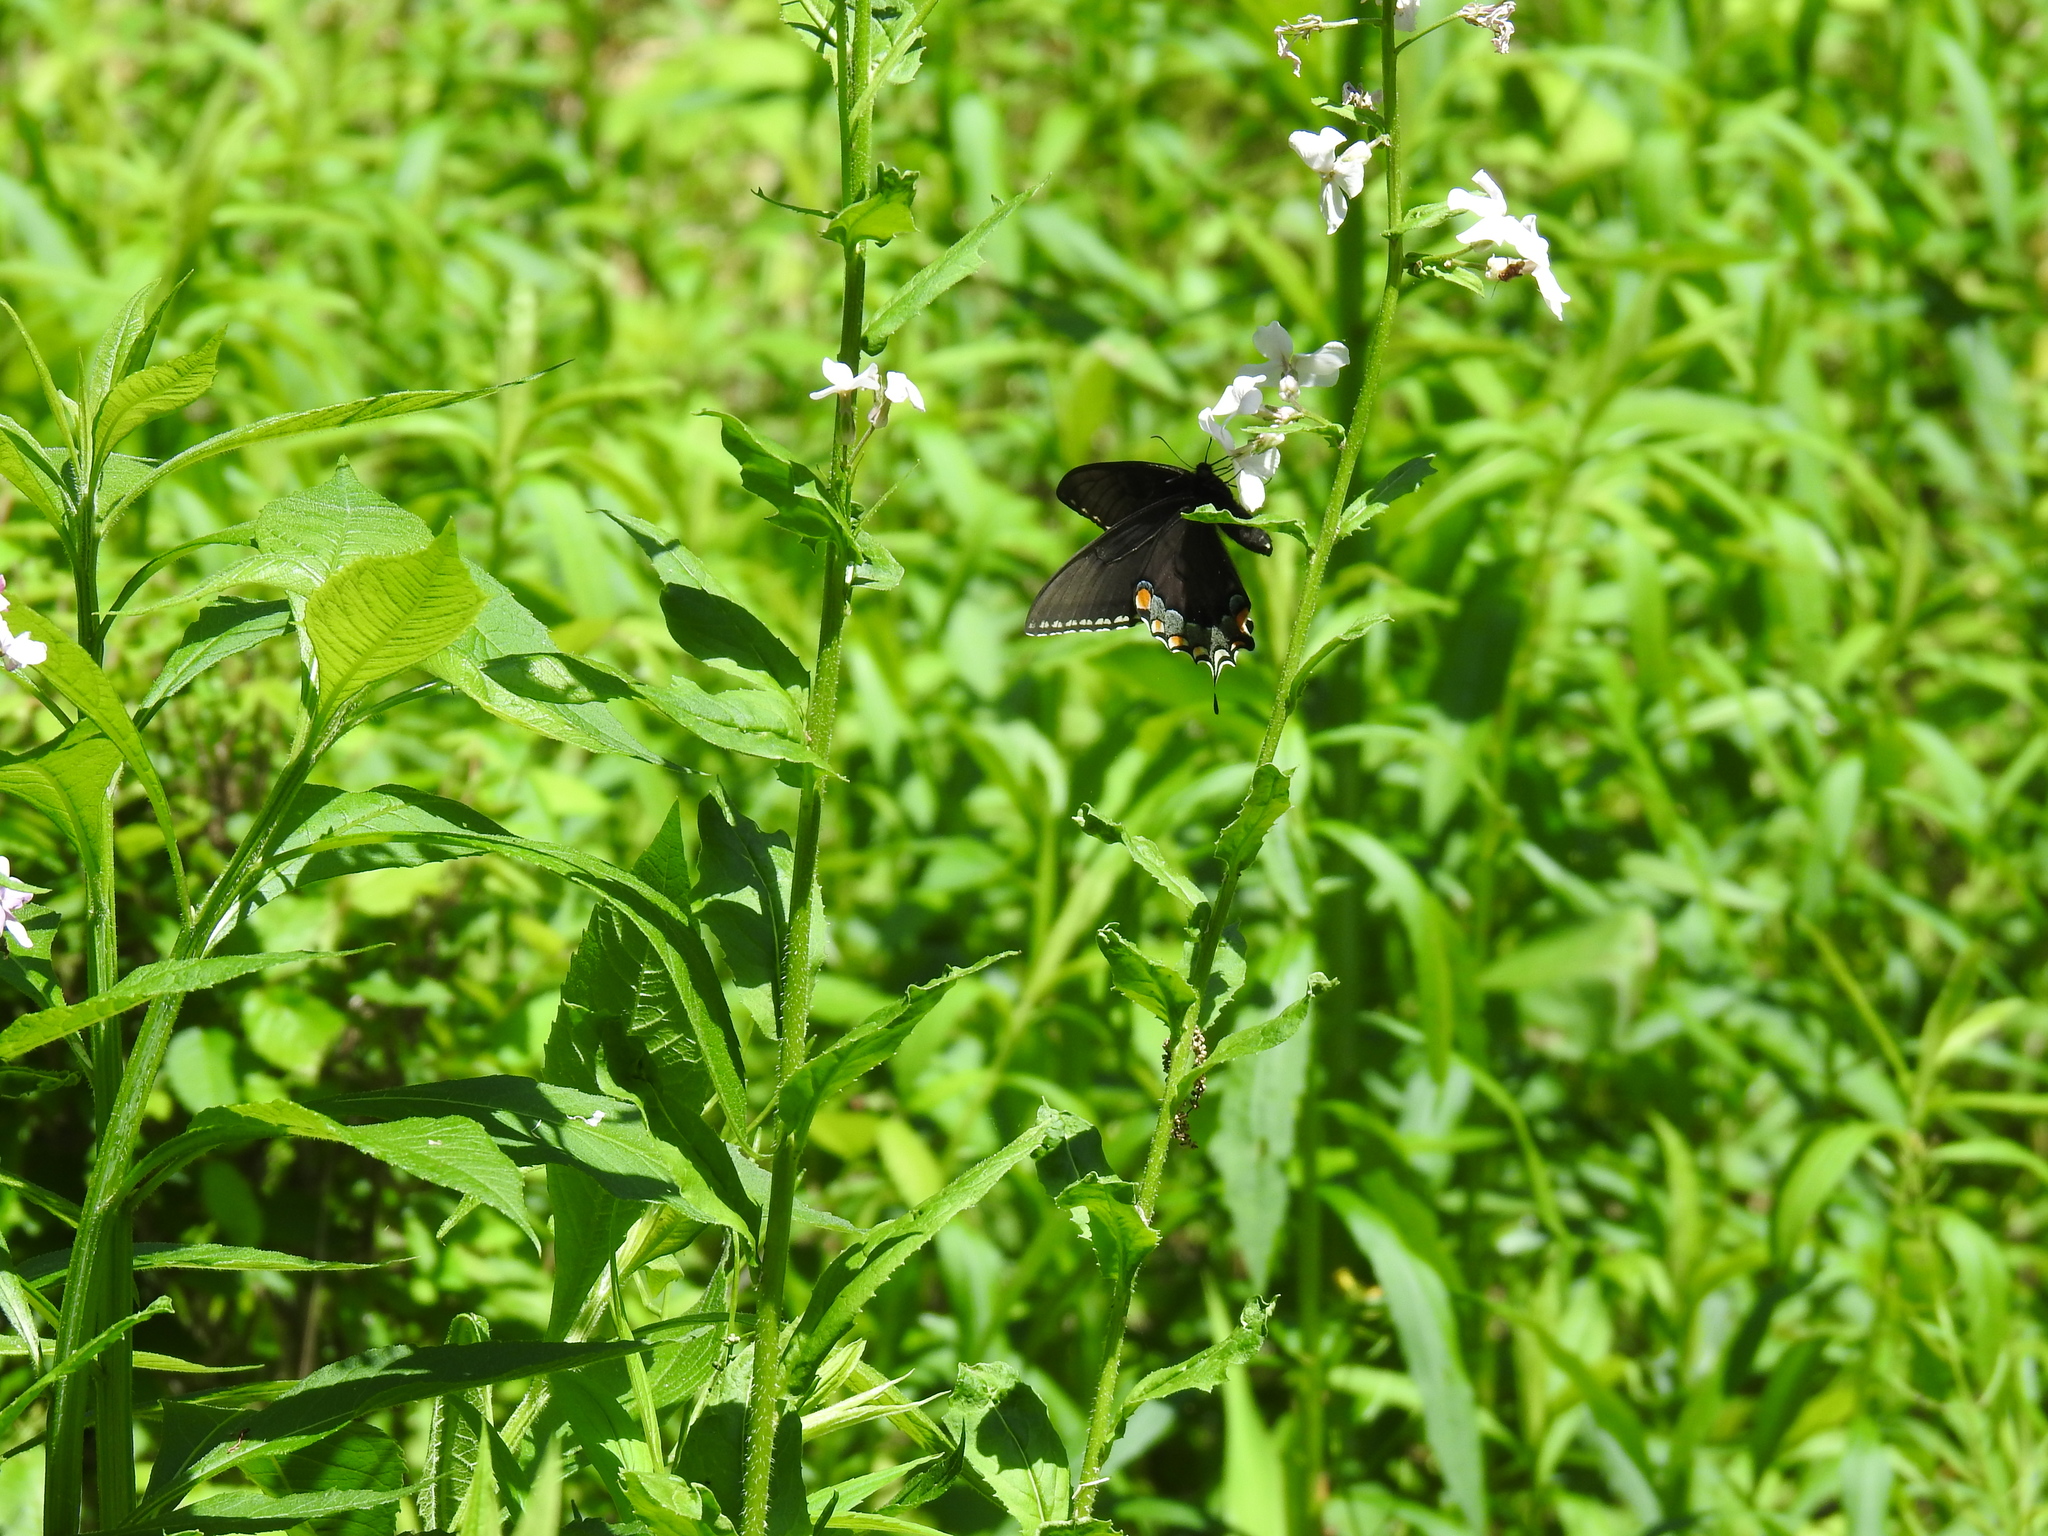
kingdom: Animalia
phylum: Arthropoda
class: Insecta
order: Lepidoptera
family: Papilionidae
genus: Papilio
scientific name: Papilio glaucus
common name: Tiger swallowtail
